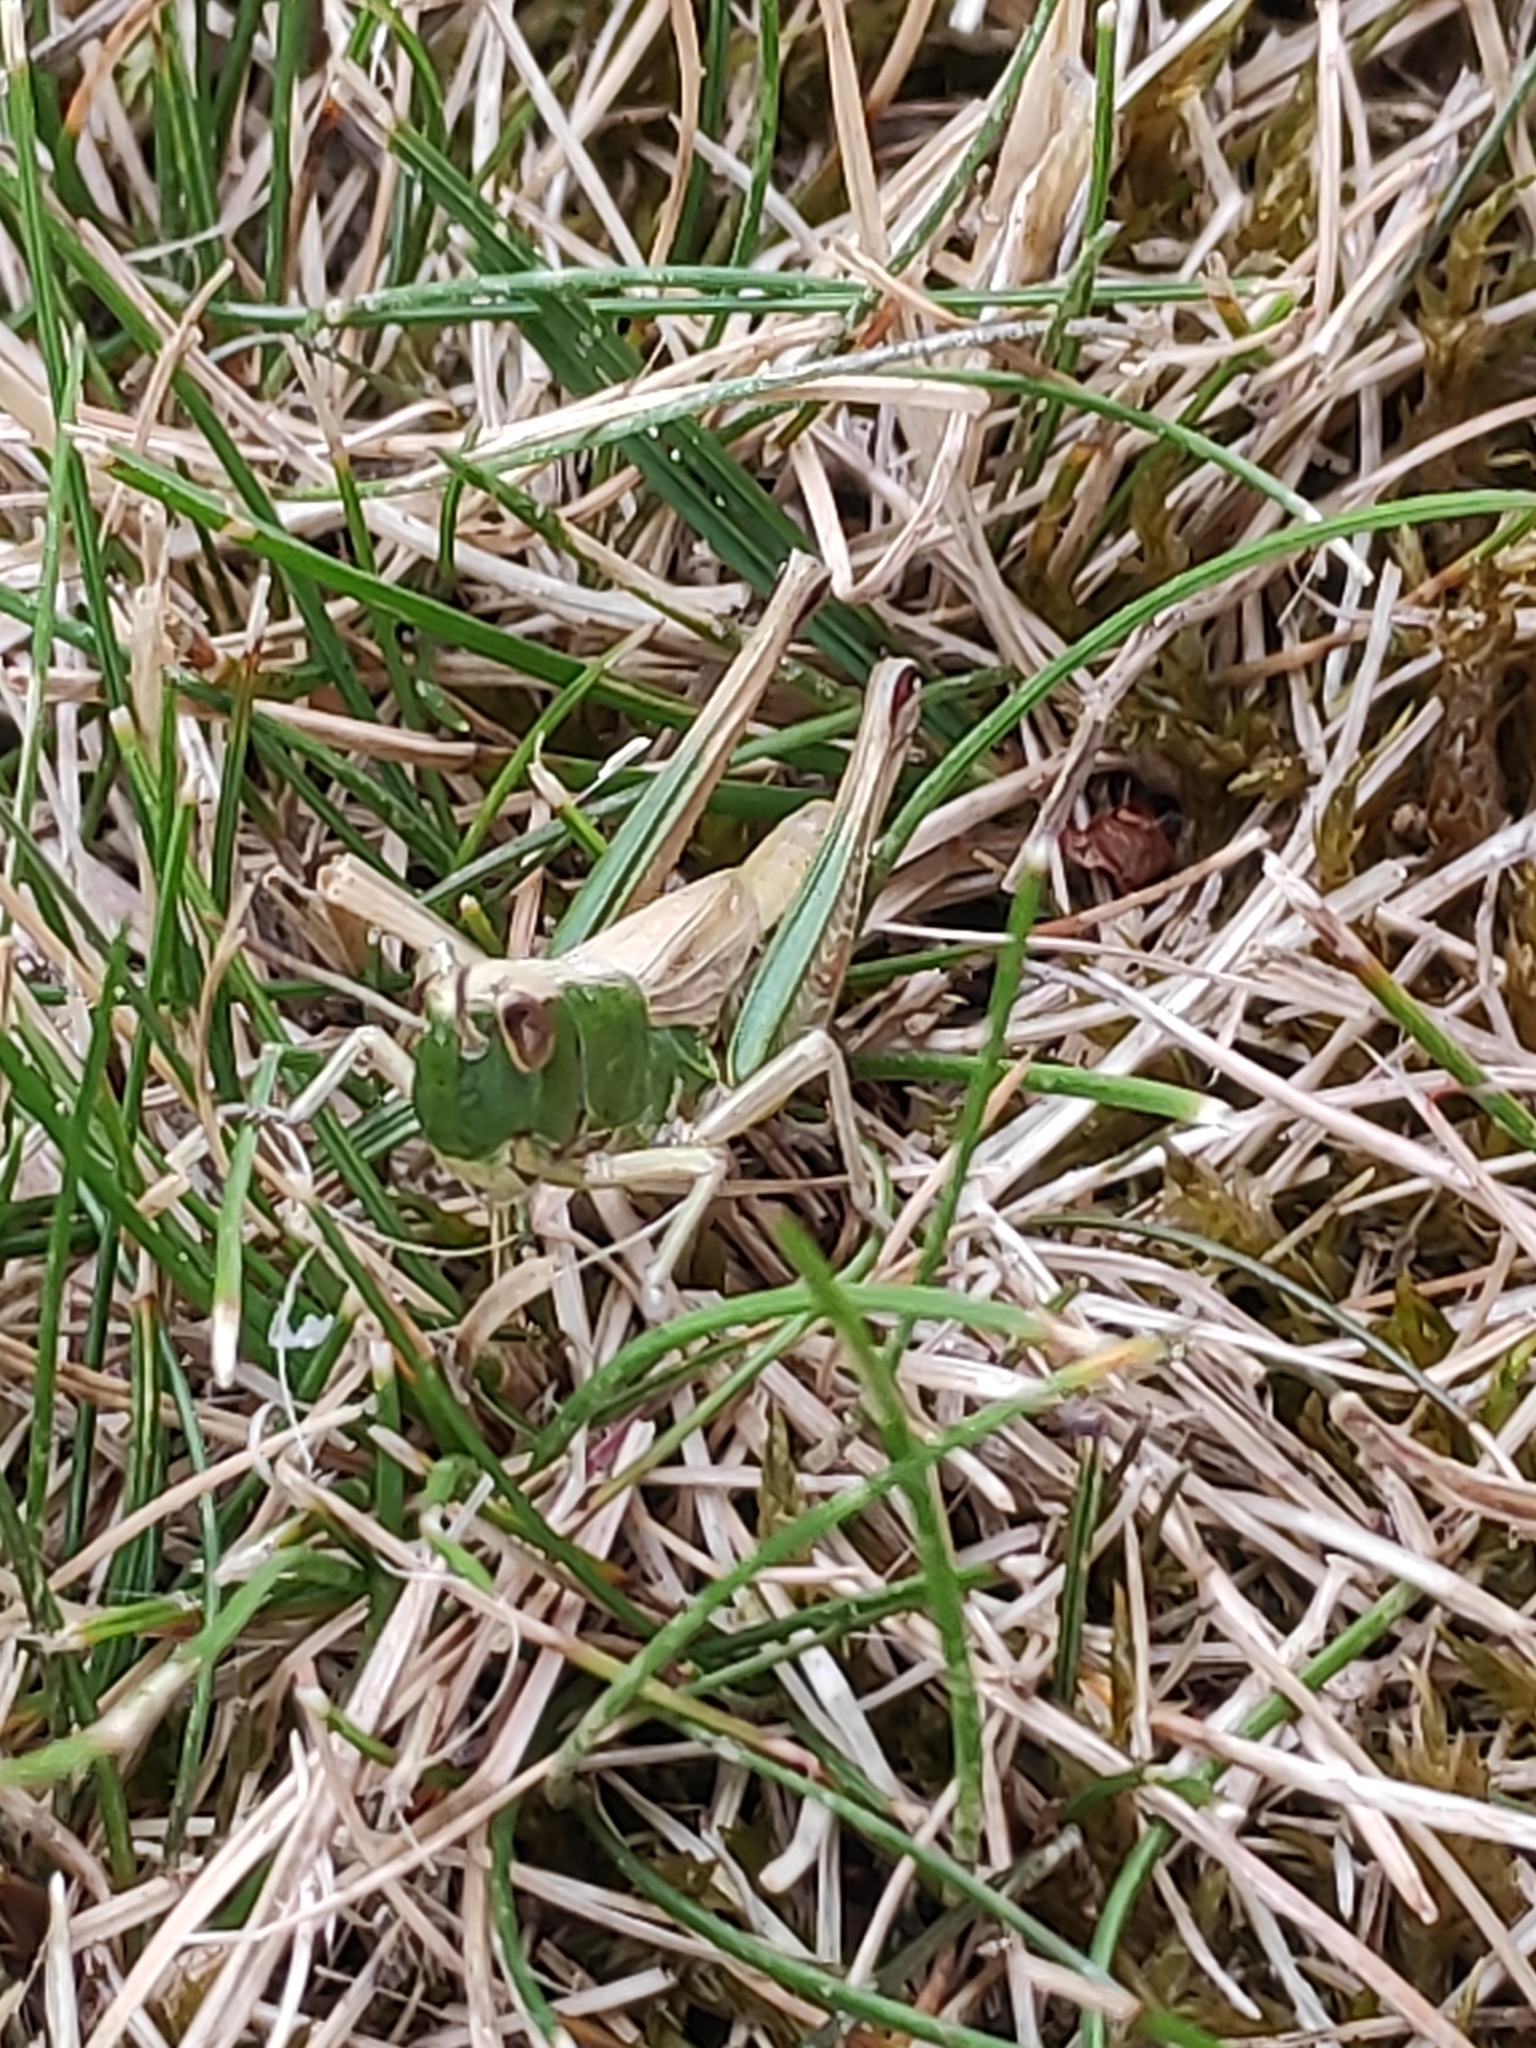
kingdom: Animalia
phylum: Arthropoda
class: Insecta
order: Orthoptera
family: Acrididae
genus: Pseudochorthippus
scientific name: Pseudochorthippus parallelus
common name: Meadow grasshopper
